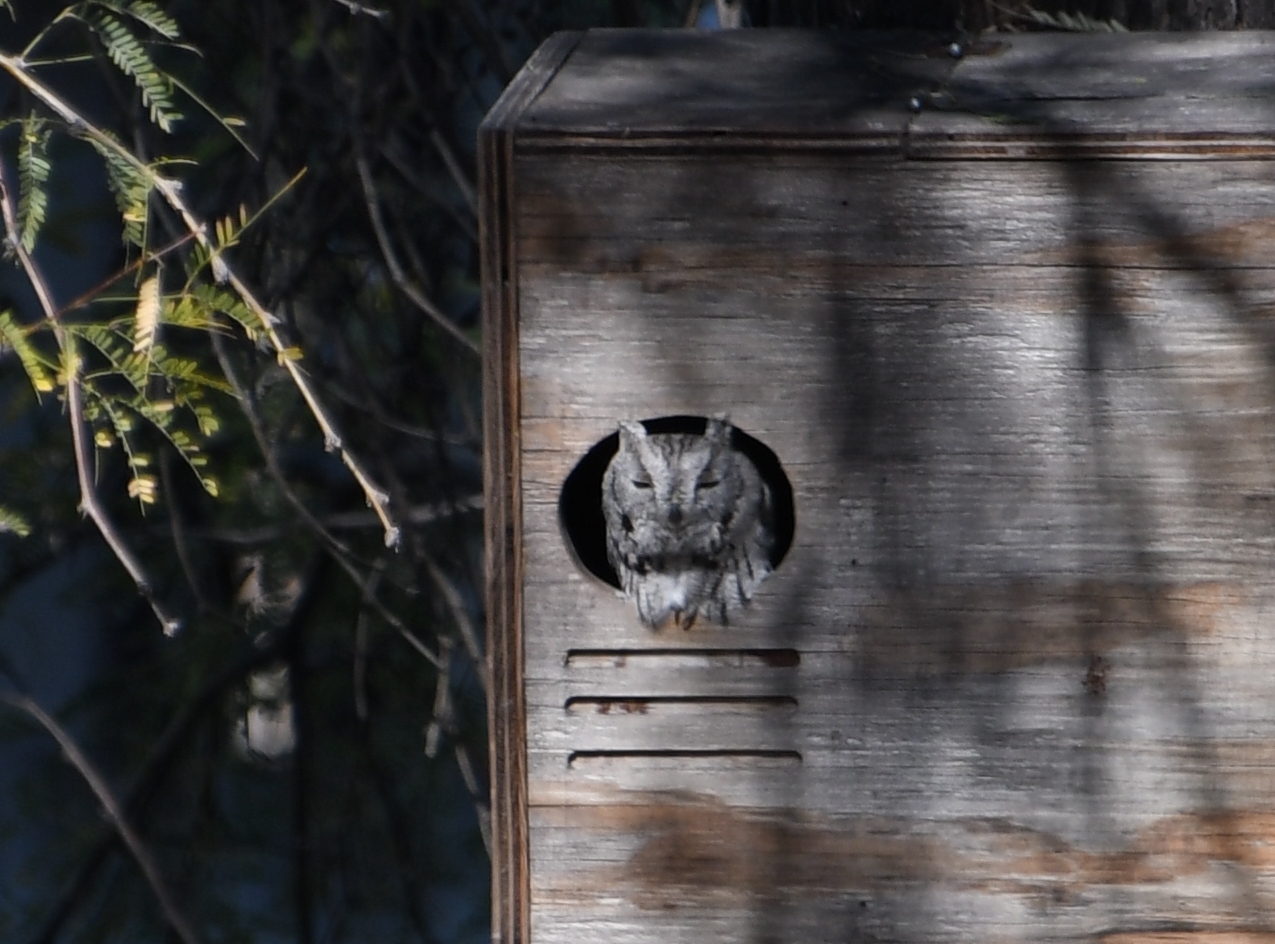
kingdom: Animalia
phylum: Chordata
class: Aves
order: Strigiformes
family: Strigidae
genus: Megascops
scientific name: Megascops kennicottii
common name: Western screech-owl
